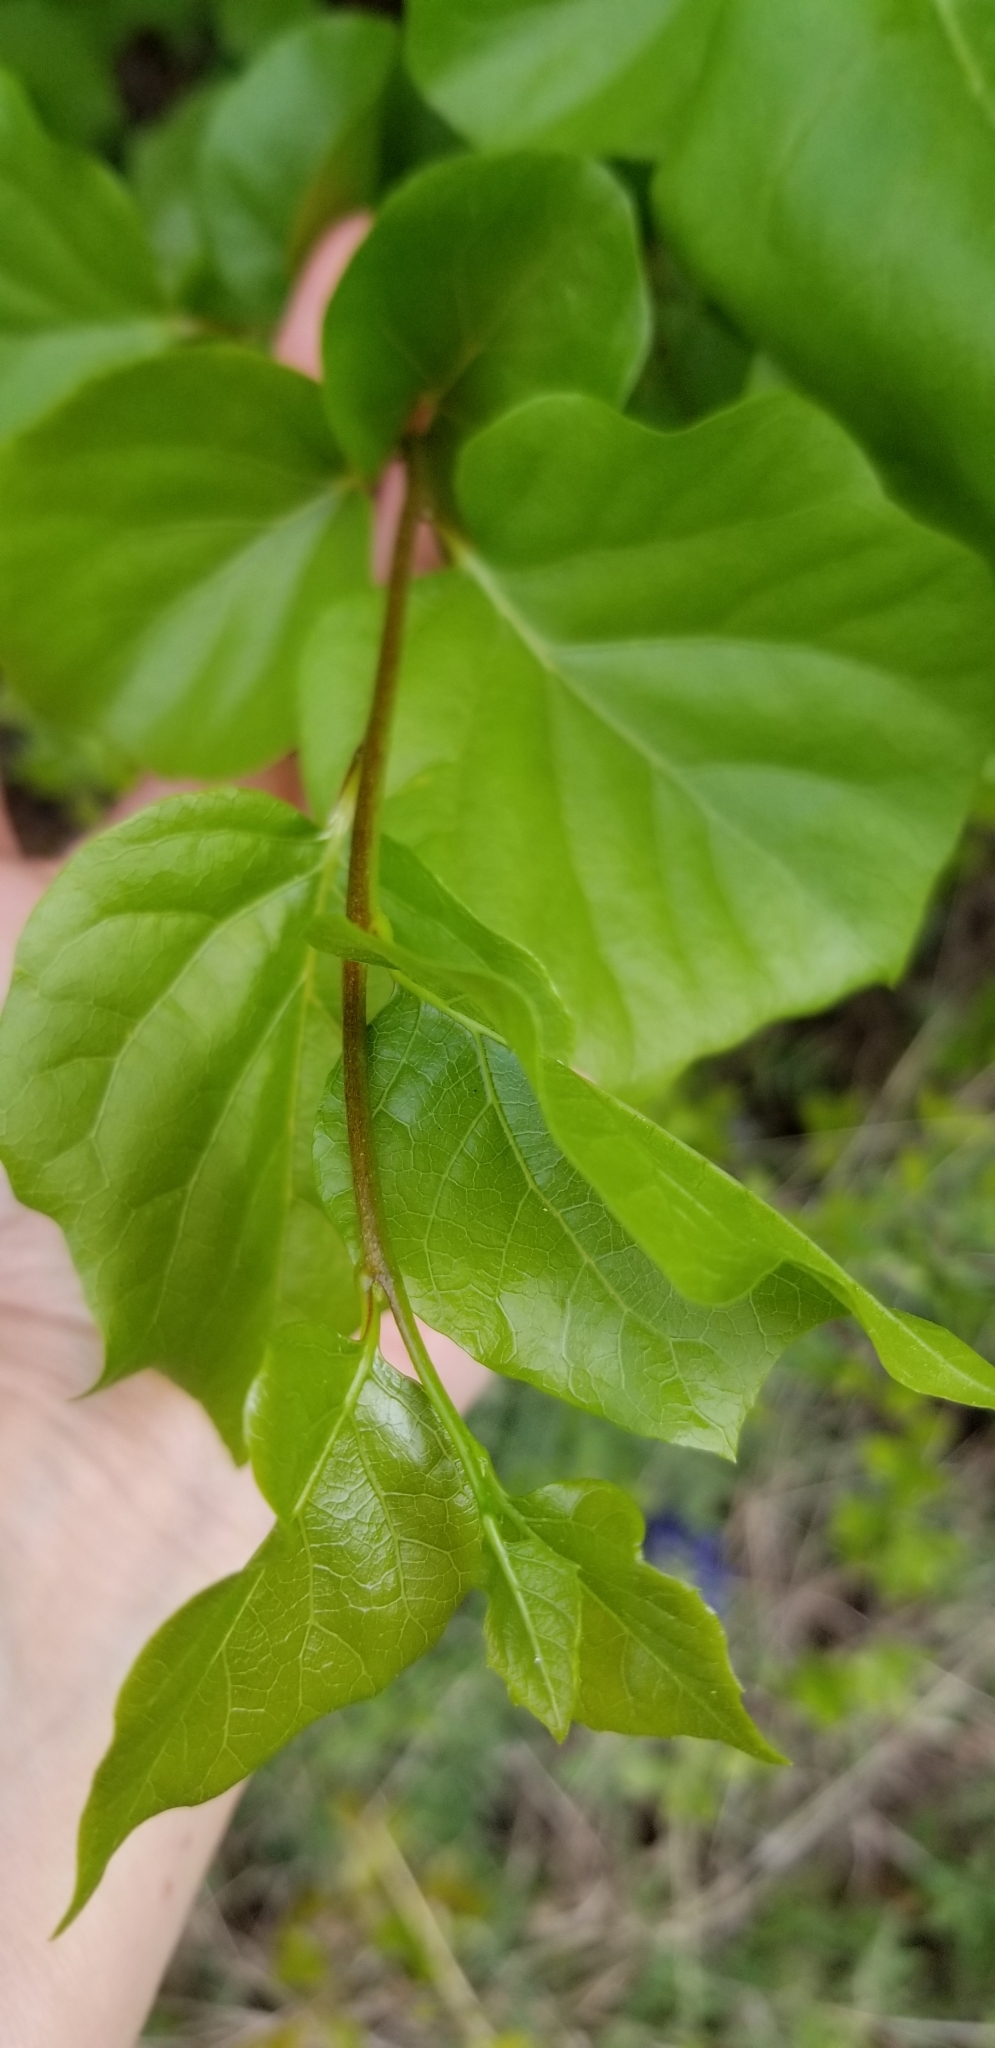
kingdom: Plantae
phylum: Tracheophyta
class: Magnoliopsida
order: Ericales
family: Styracaceae
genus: Styrax
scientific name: Styrax platanifolius
